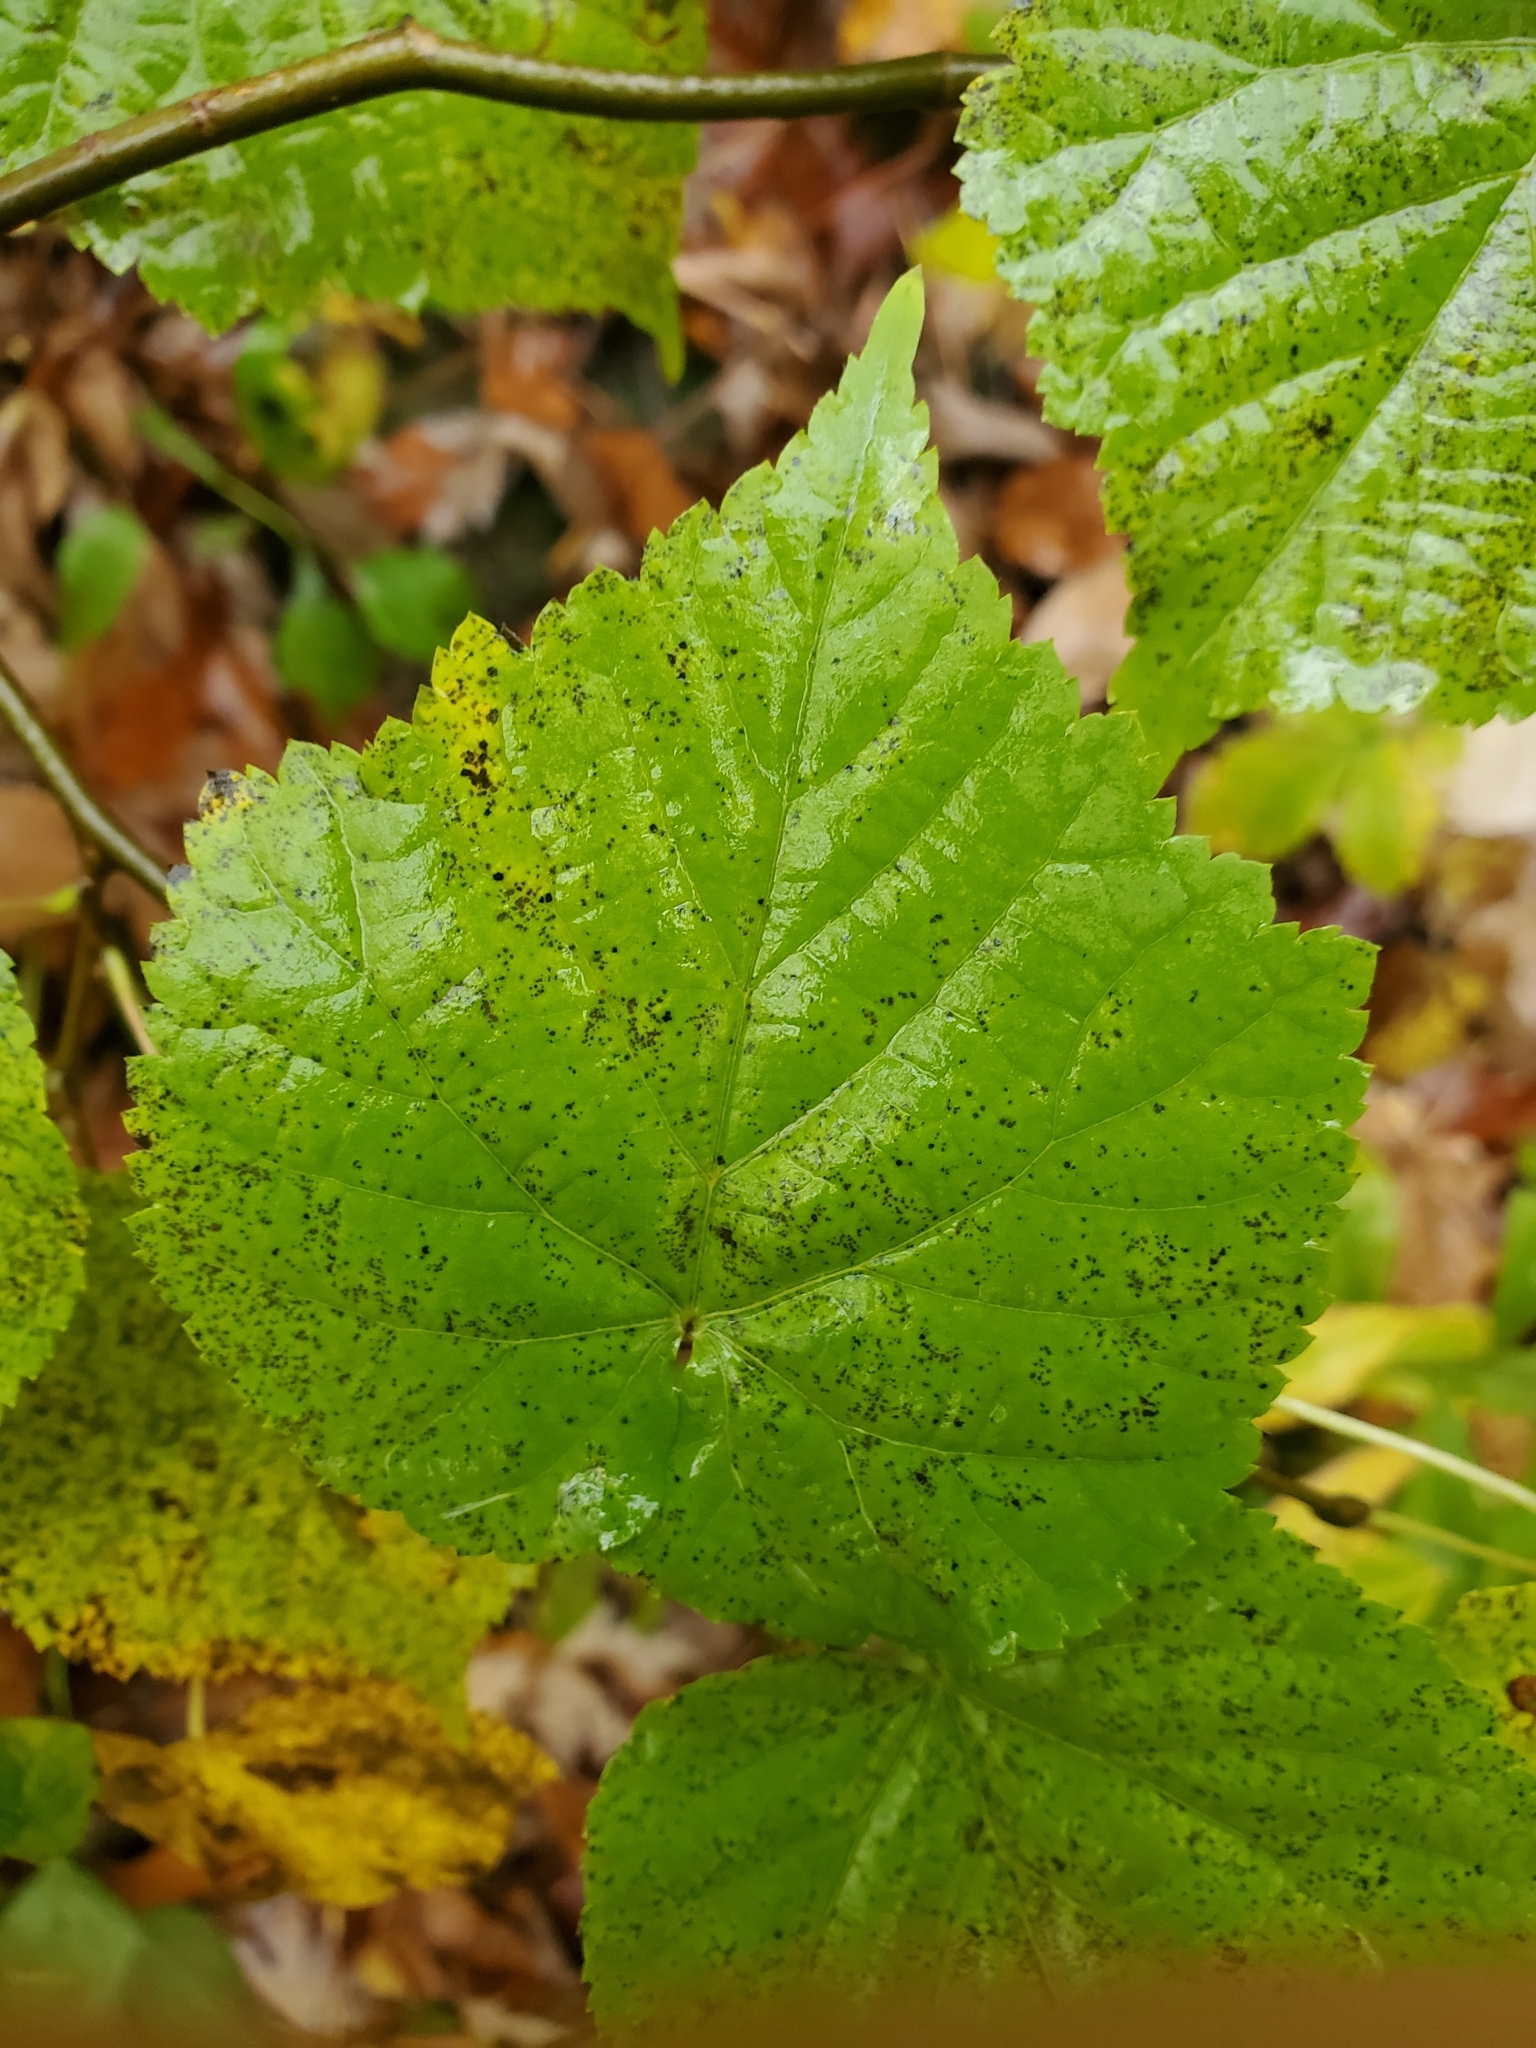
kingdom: Plantae
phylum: Tracheophyta
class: Magnoliopsida
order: Malvales
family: Malvaceae
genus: Tilia
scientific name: Tilia cordata
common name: Small-leaved lime
